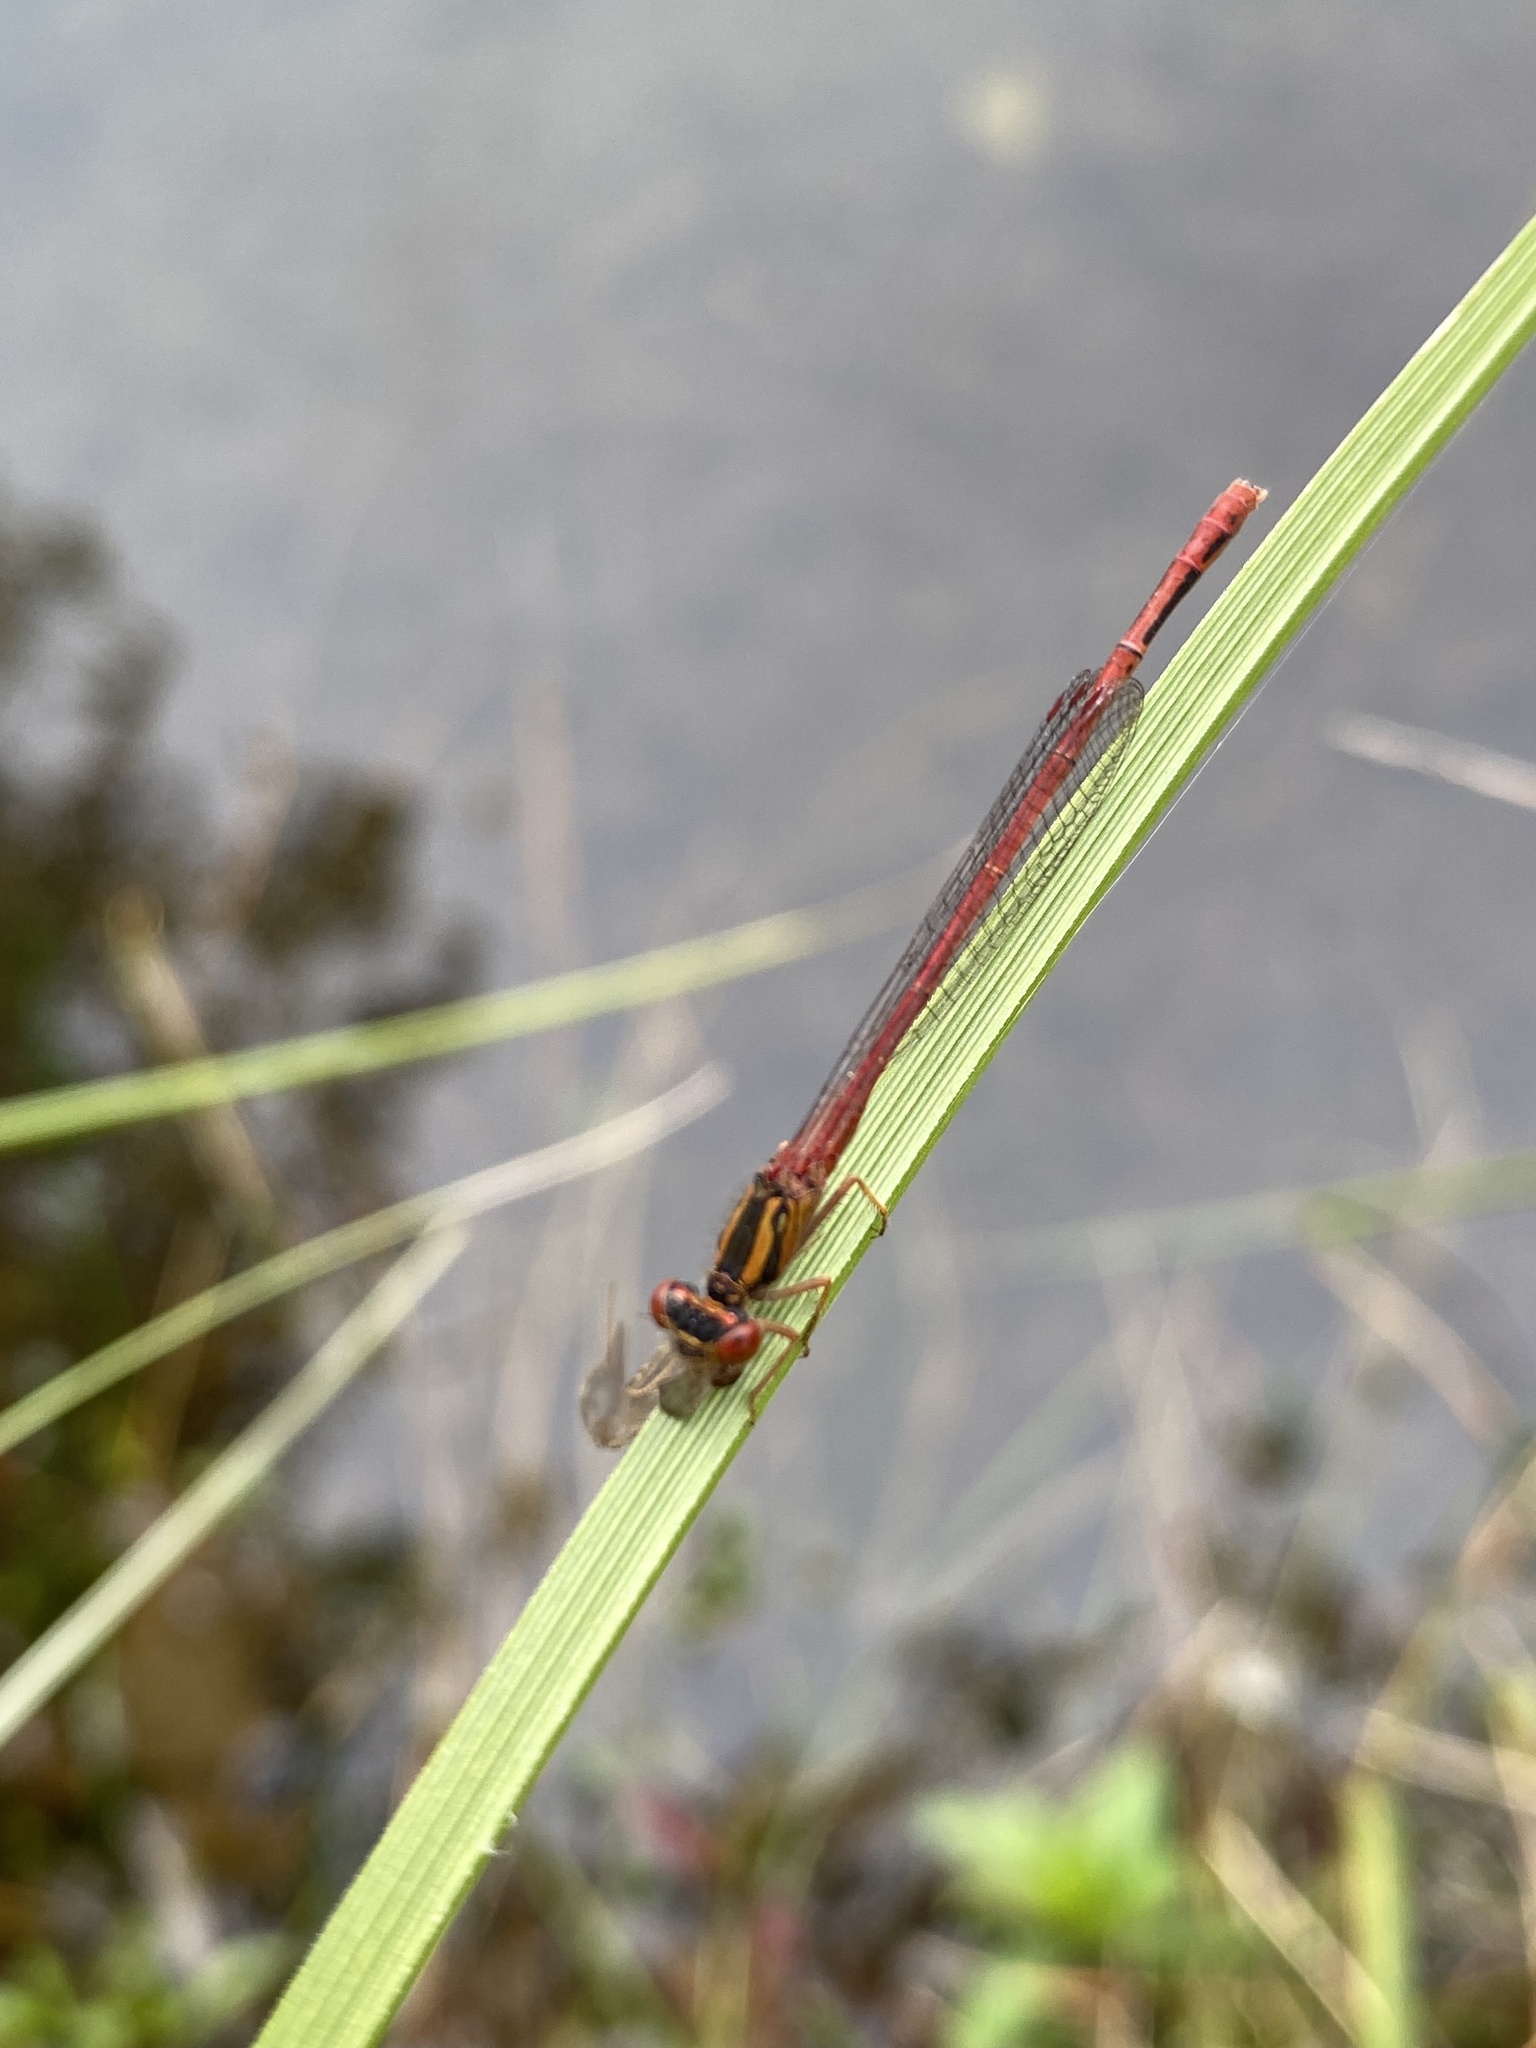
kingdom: Animalia
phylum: Arthropoda
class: Insecta
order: Odonata
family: Coenagrionidae
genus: Xanthocnemis
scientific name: Xanthocnemis zealandica
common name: Common redcoat damselfly
